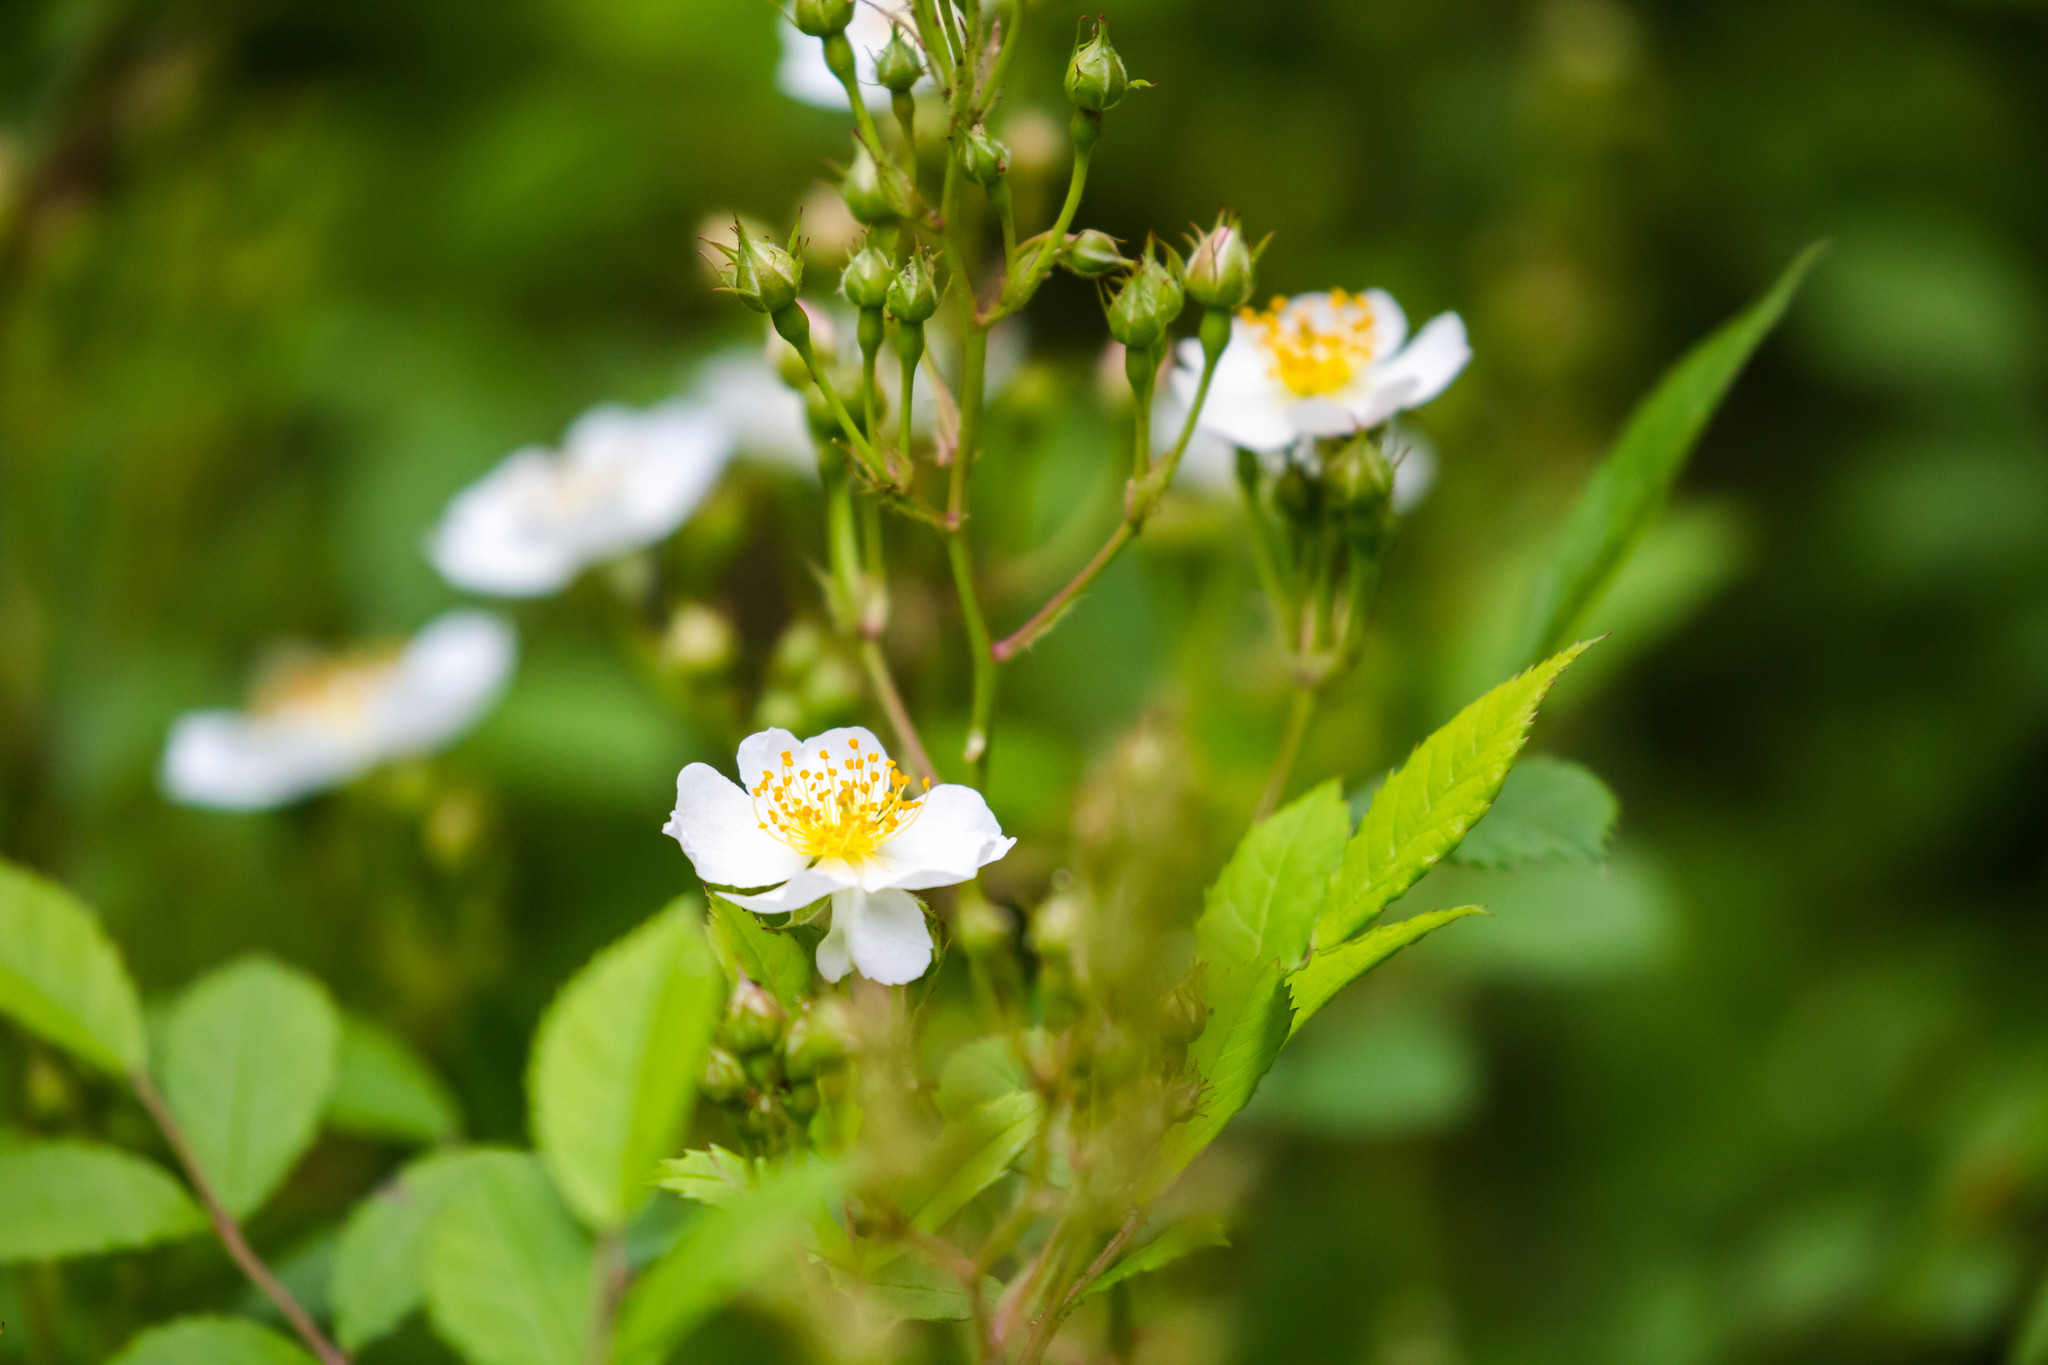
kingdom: Plantae
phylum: Tracheophyta
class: Magnoliopsida
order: Rosales
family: Rosaceae
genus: Rosa
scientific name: Rosa multiflora
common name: Multiflora rose
